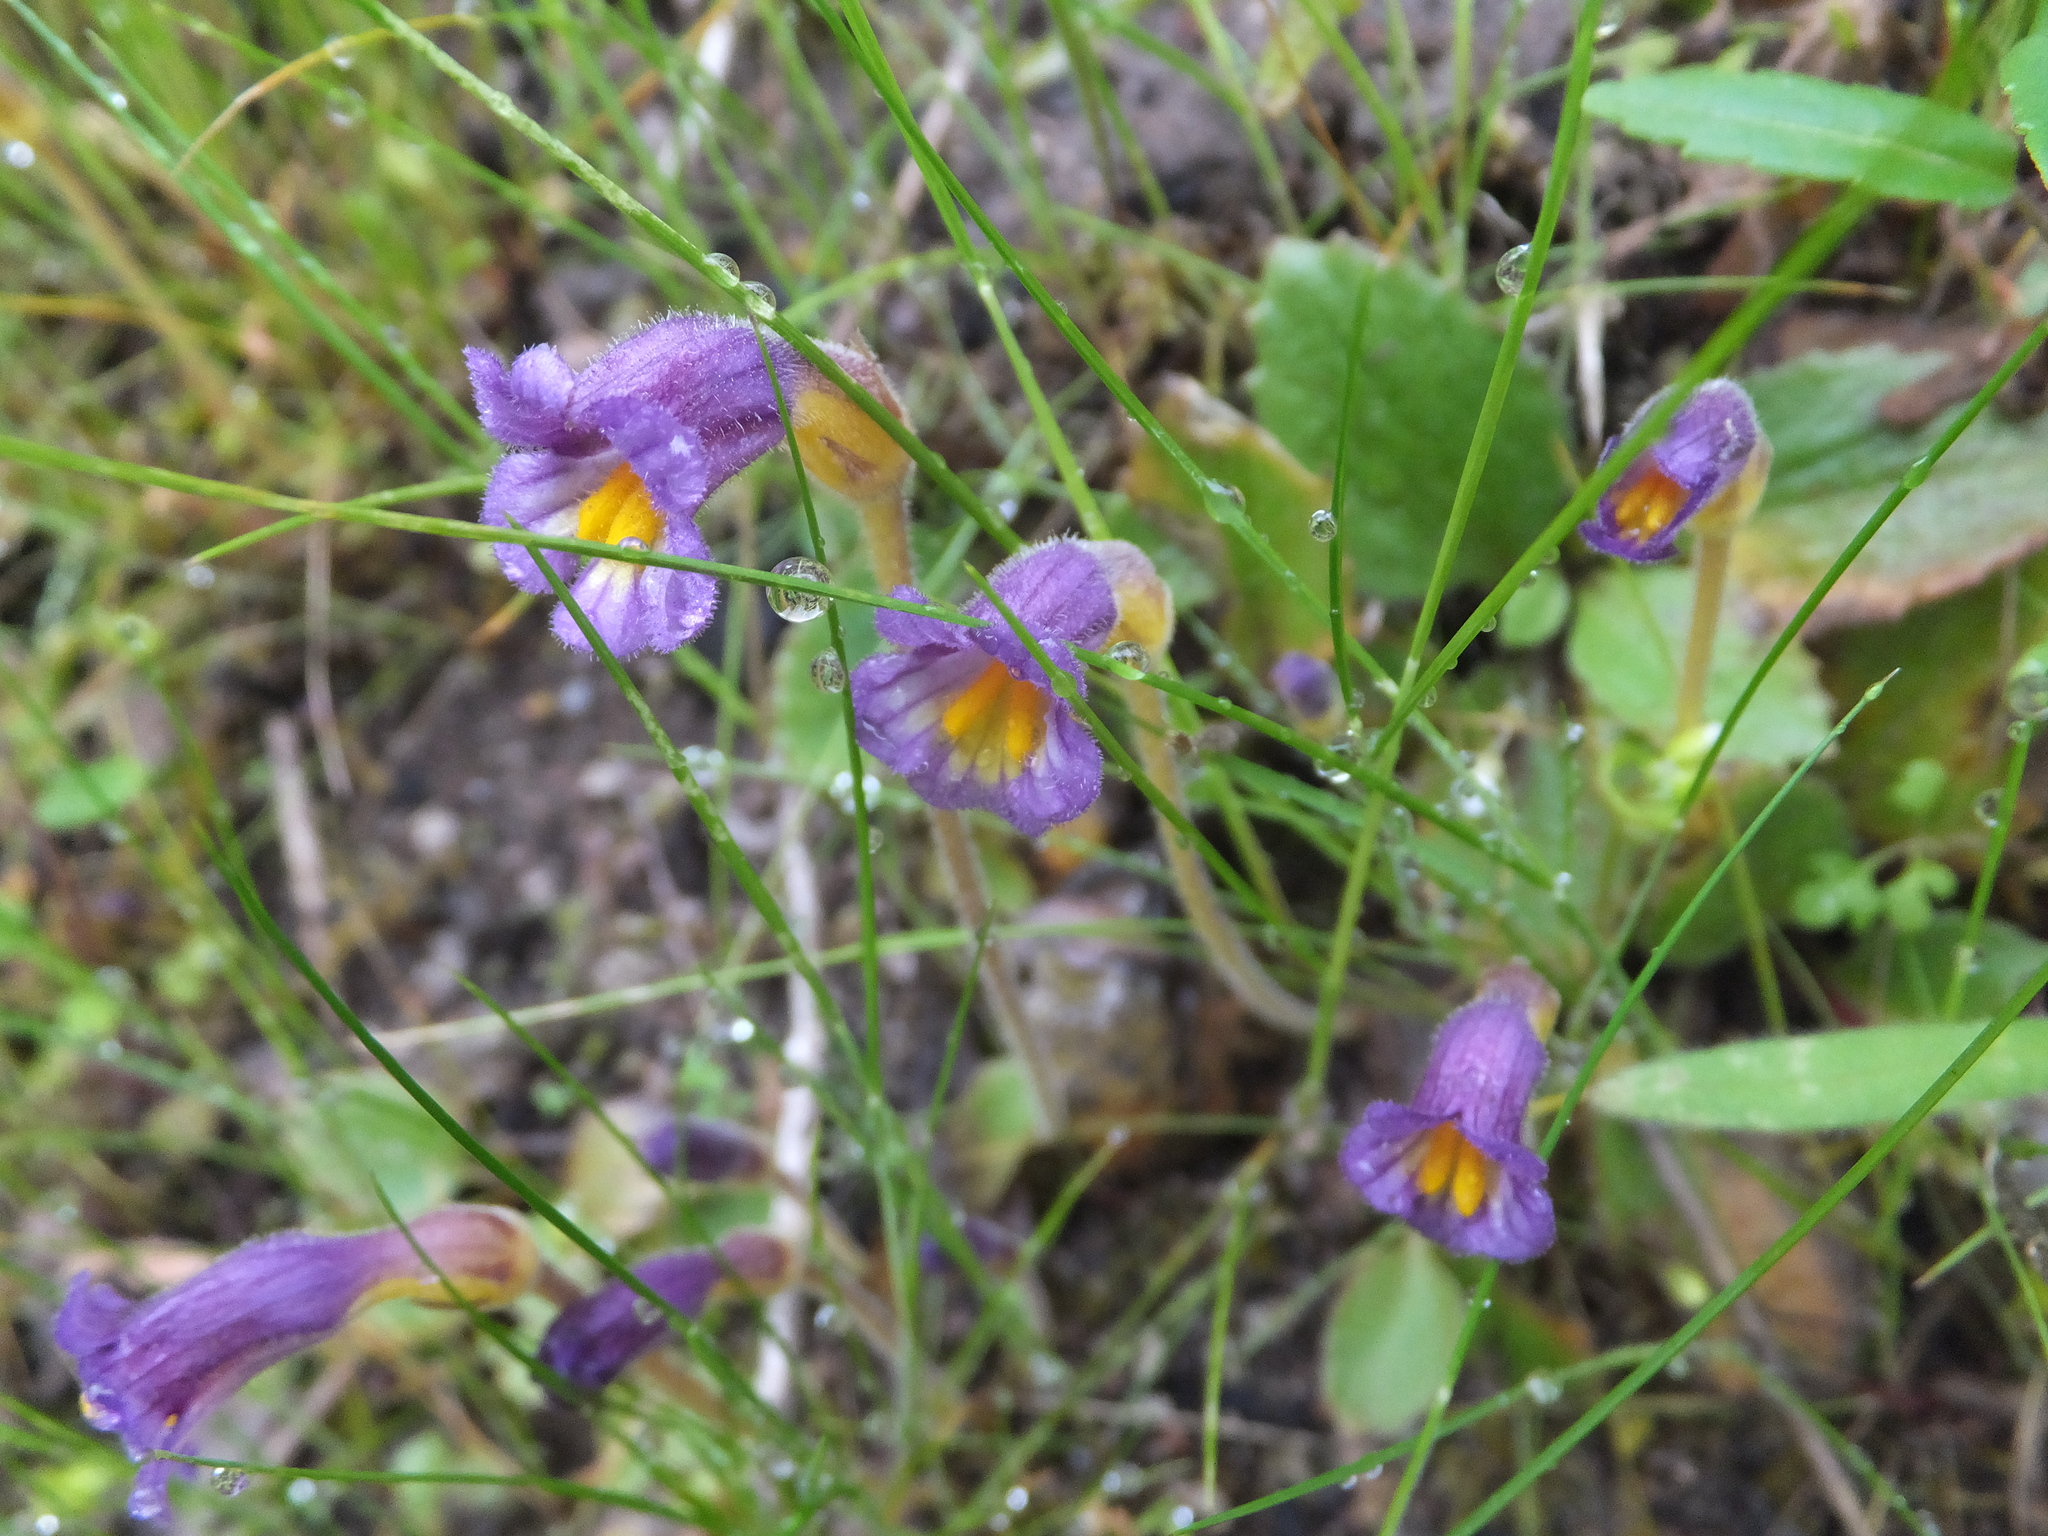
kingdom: Plantae
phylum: Tracheophyta
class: Magnoliopsida
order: Lamiales
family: Orobanchaceae
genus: Aphyllon
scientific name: Aphyllon uniflorum
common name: One-flowered broomrape
